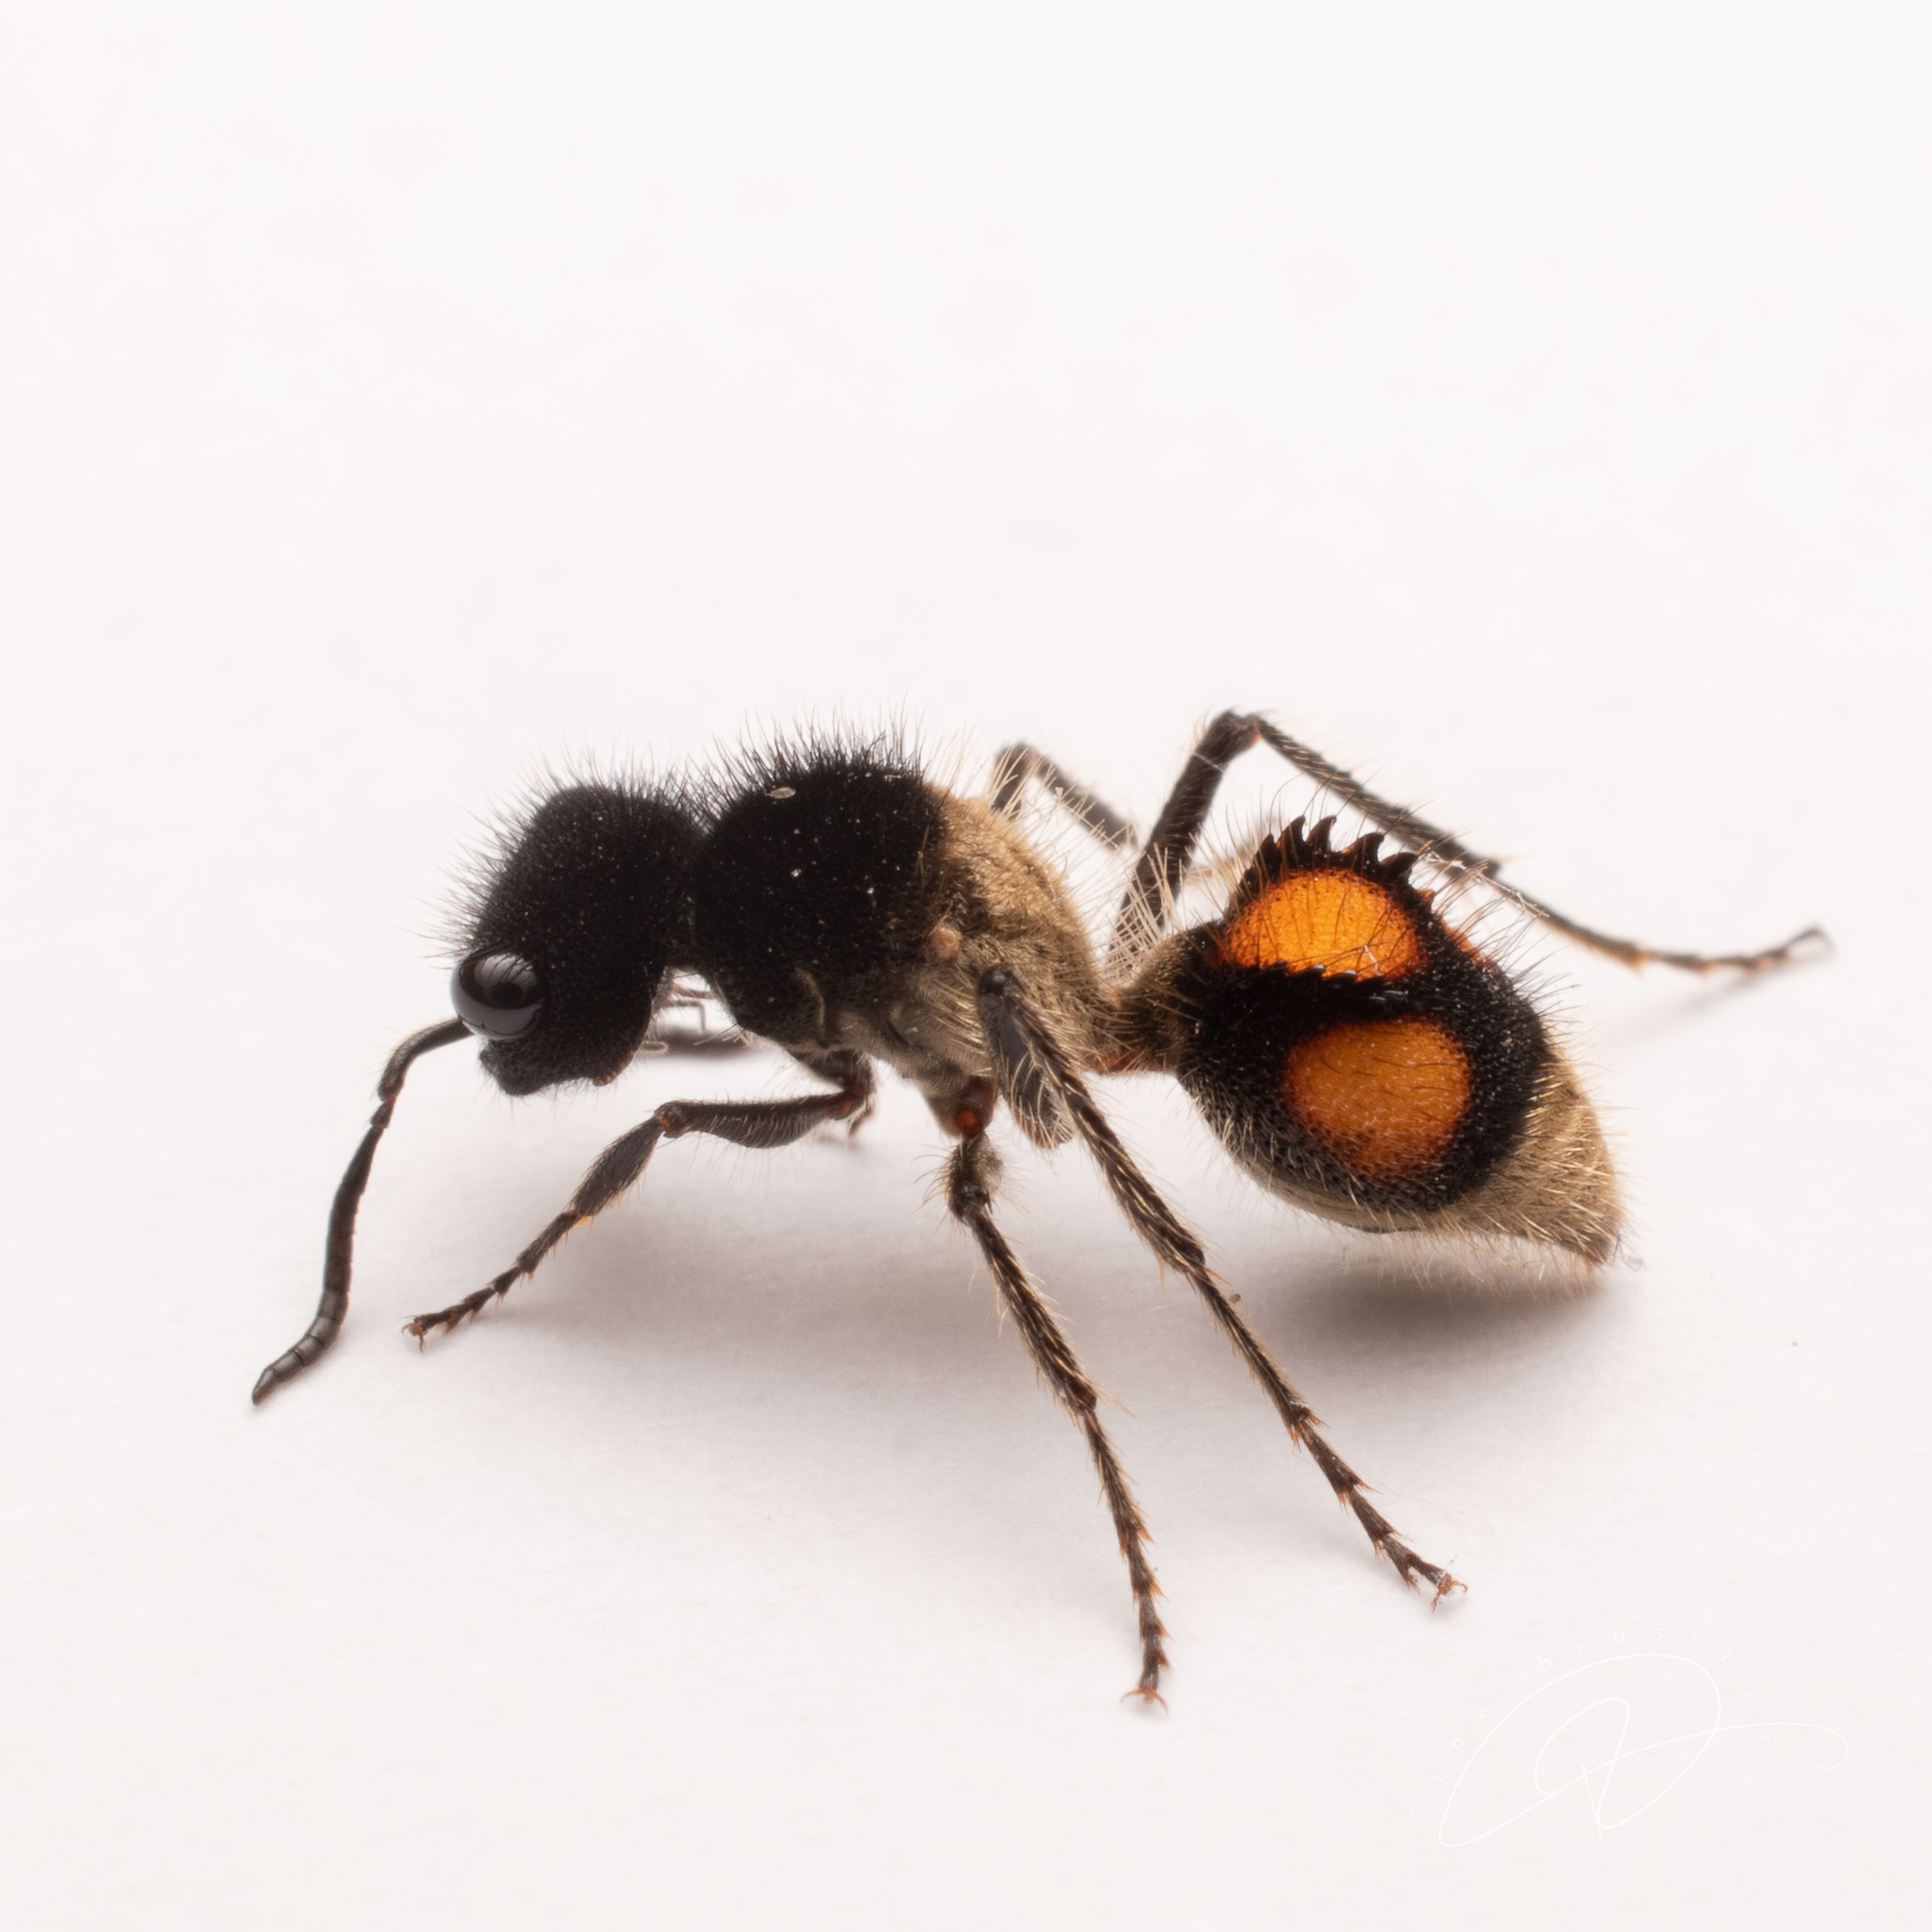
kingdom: Animalia
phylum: Arthropoda
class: Insecta
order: Hymenoptera
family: Mutillidae
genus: Lophomutilla
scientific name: Lophomutilla prionophora
